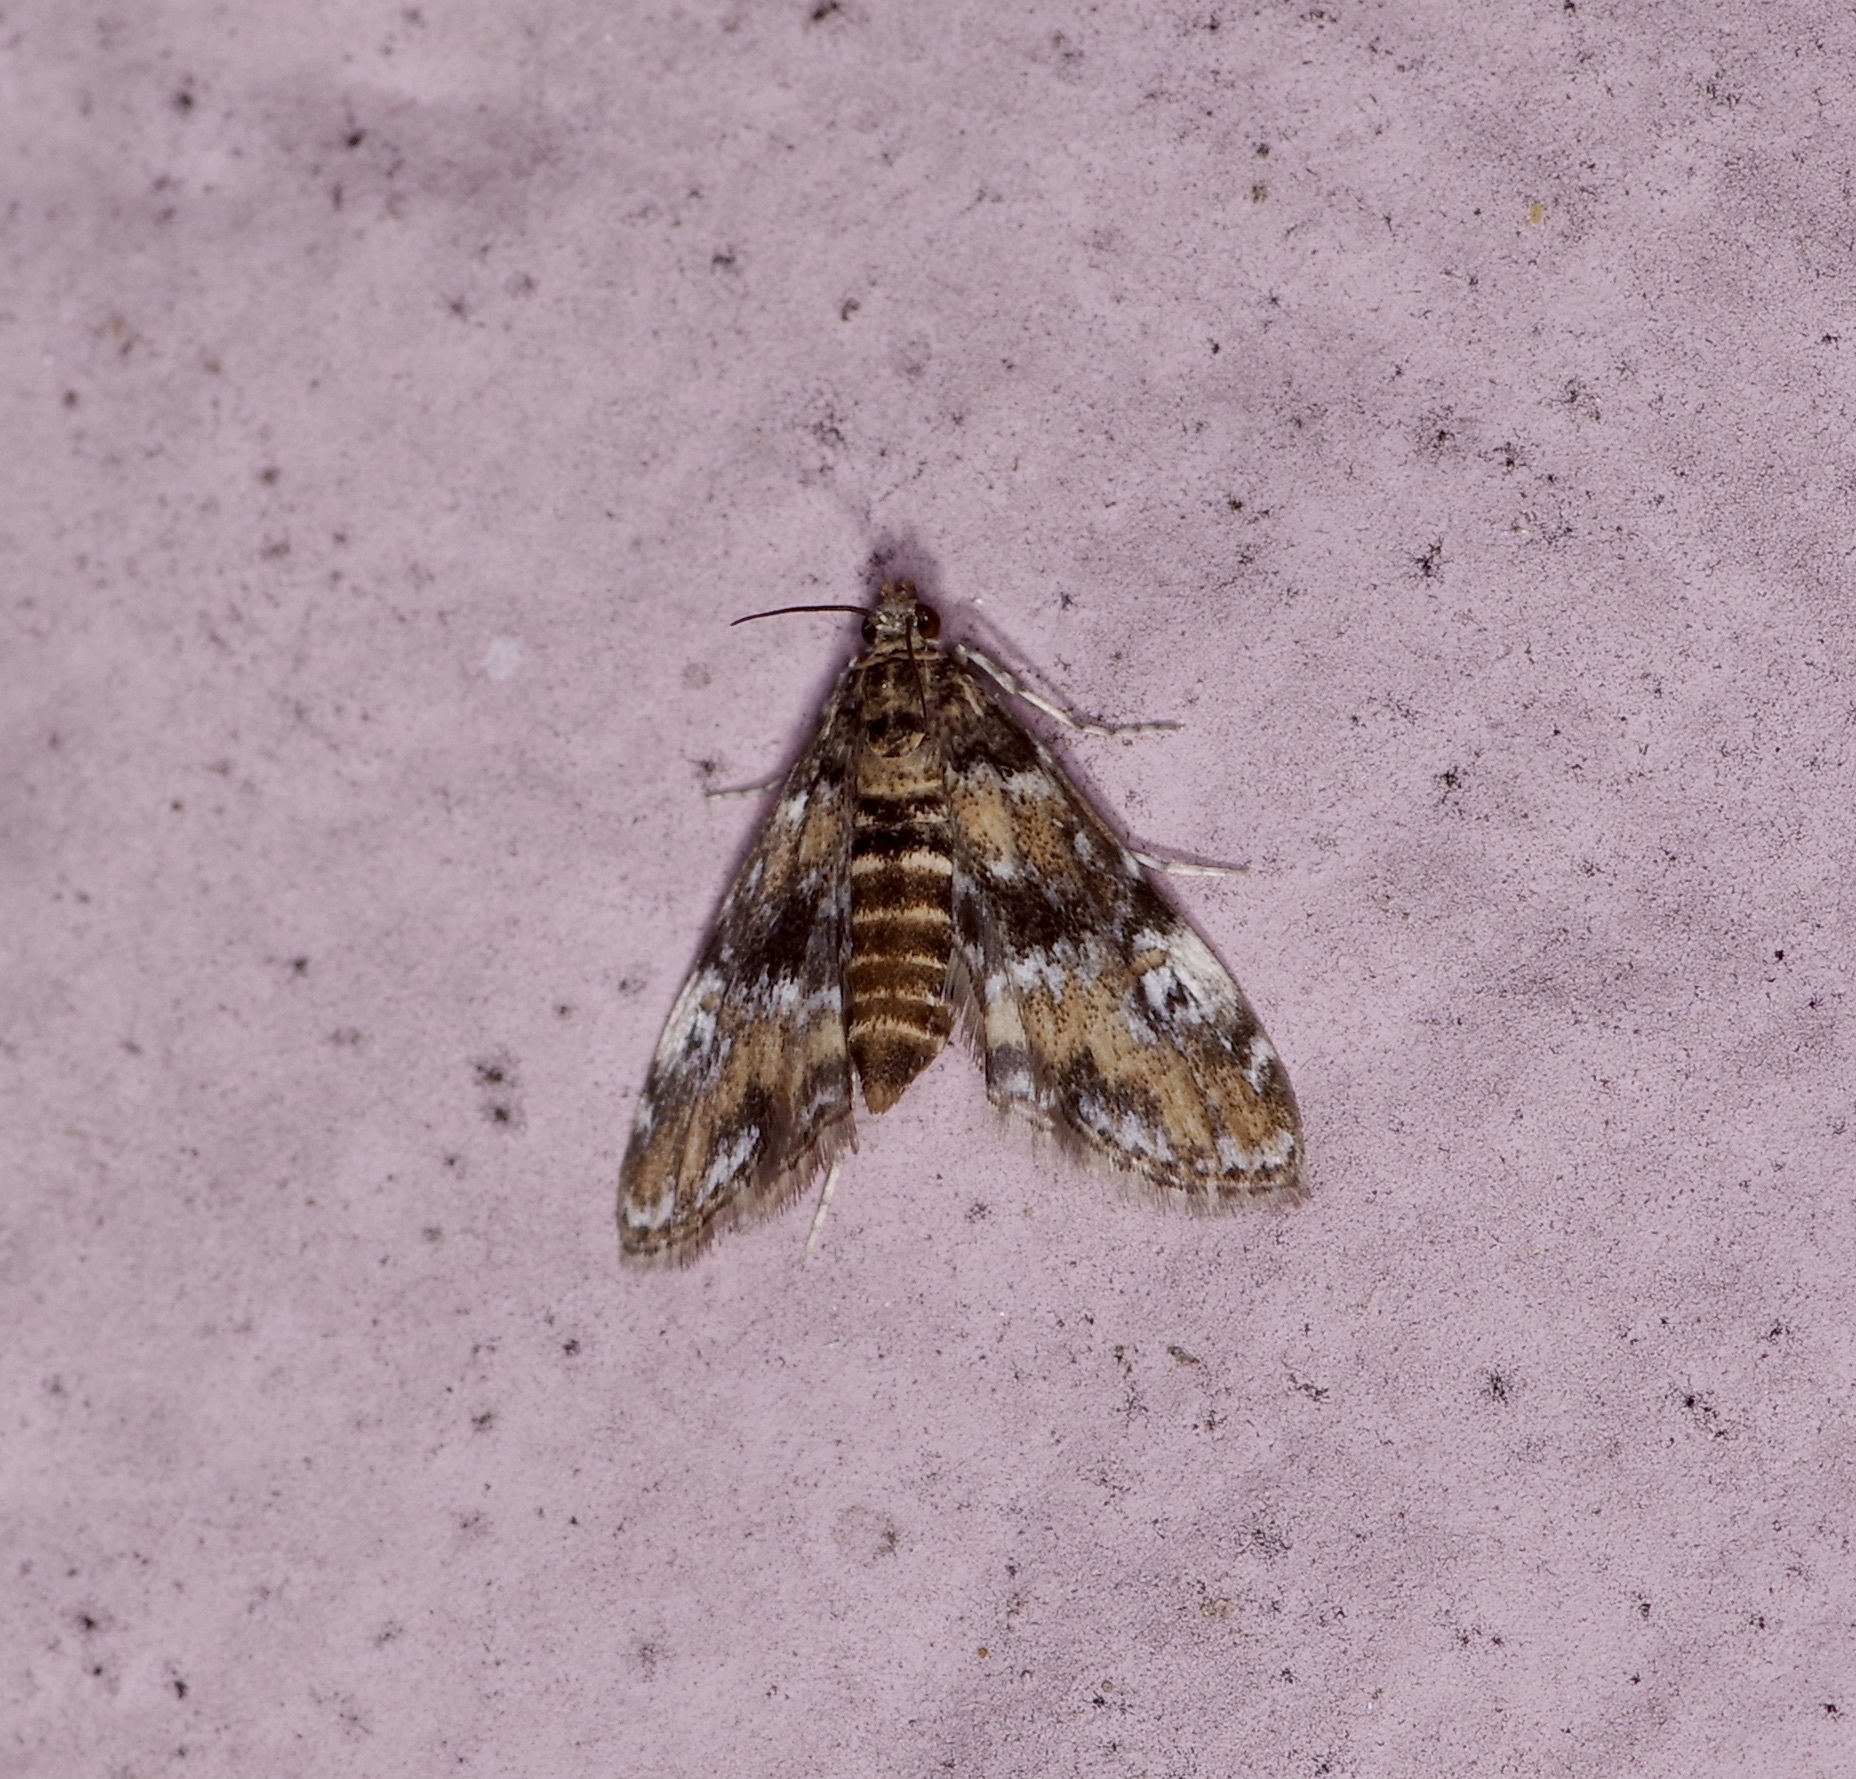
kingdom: Animalia
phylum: Arthropoda
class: Insecta
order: Lepidoptera
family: Crambidae
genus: Elophila
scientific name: Elophila obliteralis
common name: Waterlily leafcutter moth
